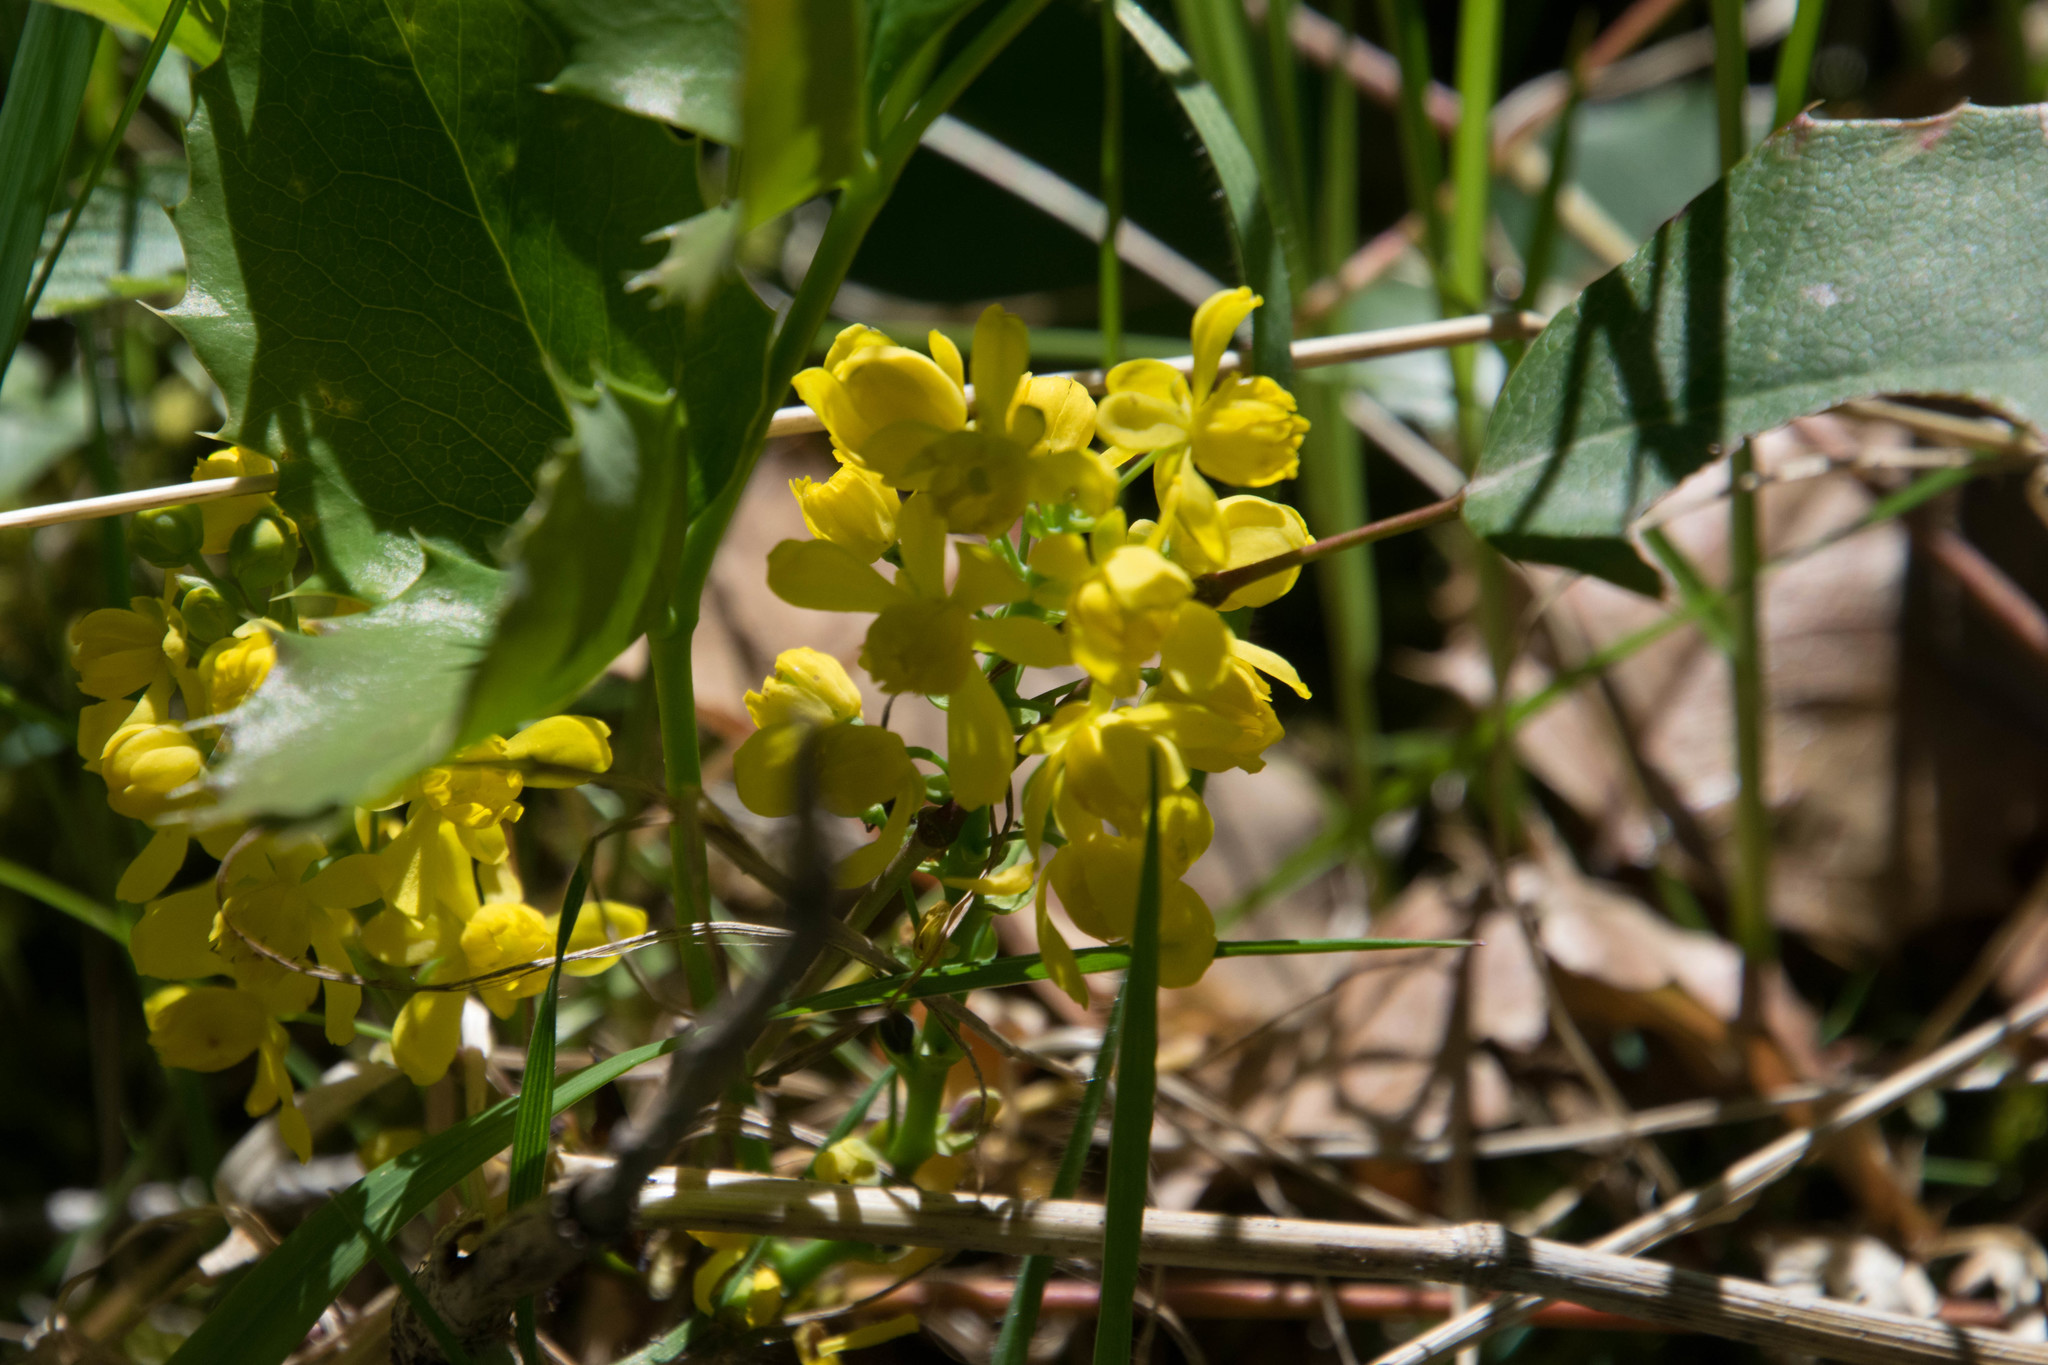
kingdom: Plantae
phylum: Tracheophyta
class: Magnoliopsida
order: Ranunculales
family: Berberidaceae
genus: Mahonia
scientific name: Mahonia repens
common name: Creeping oregon-grape
